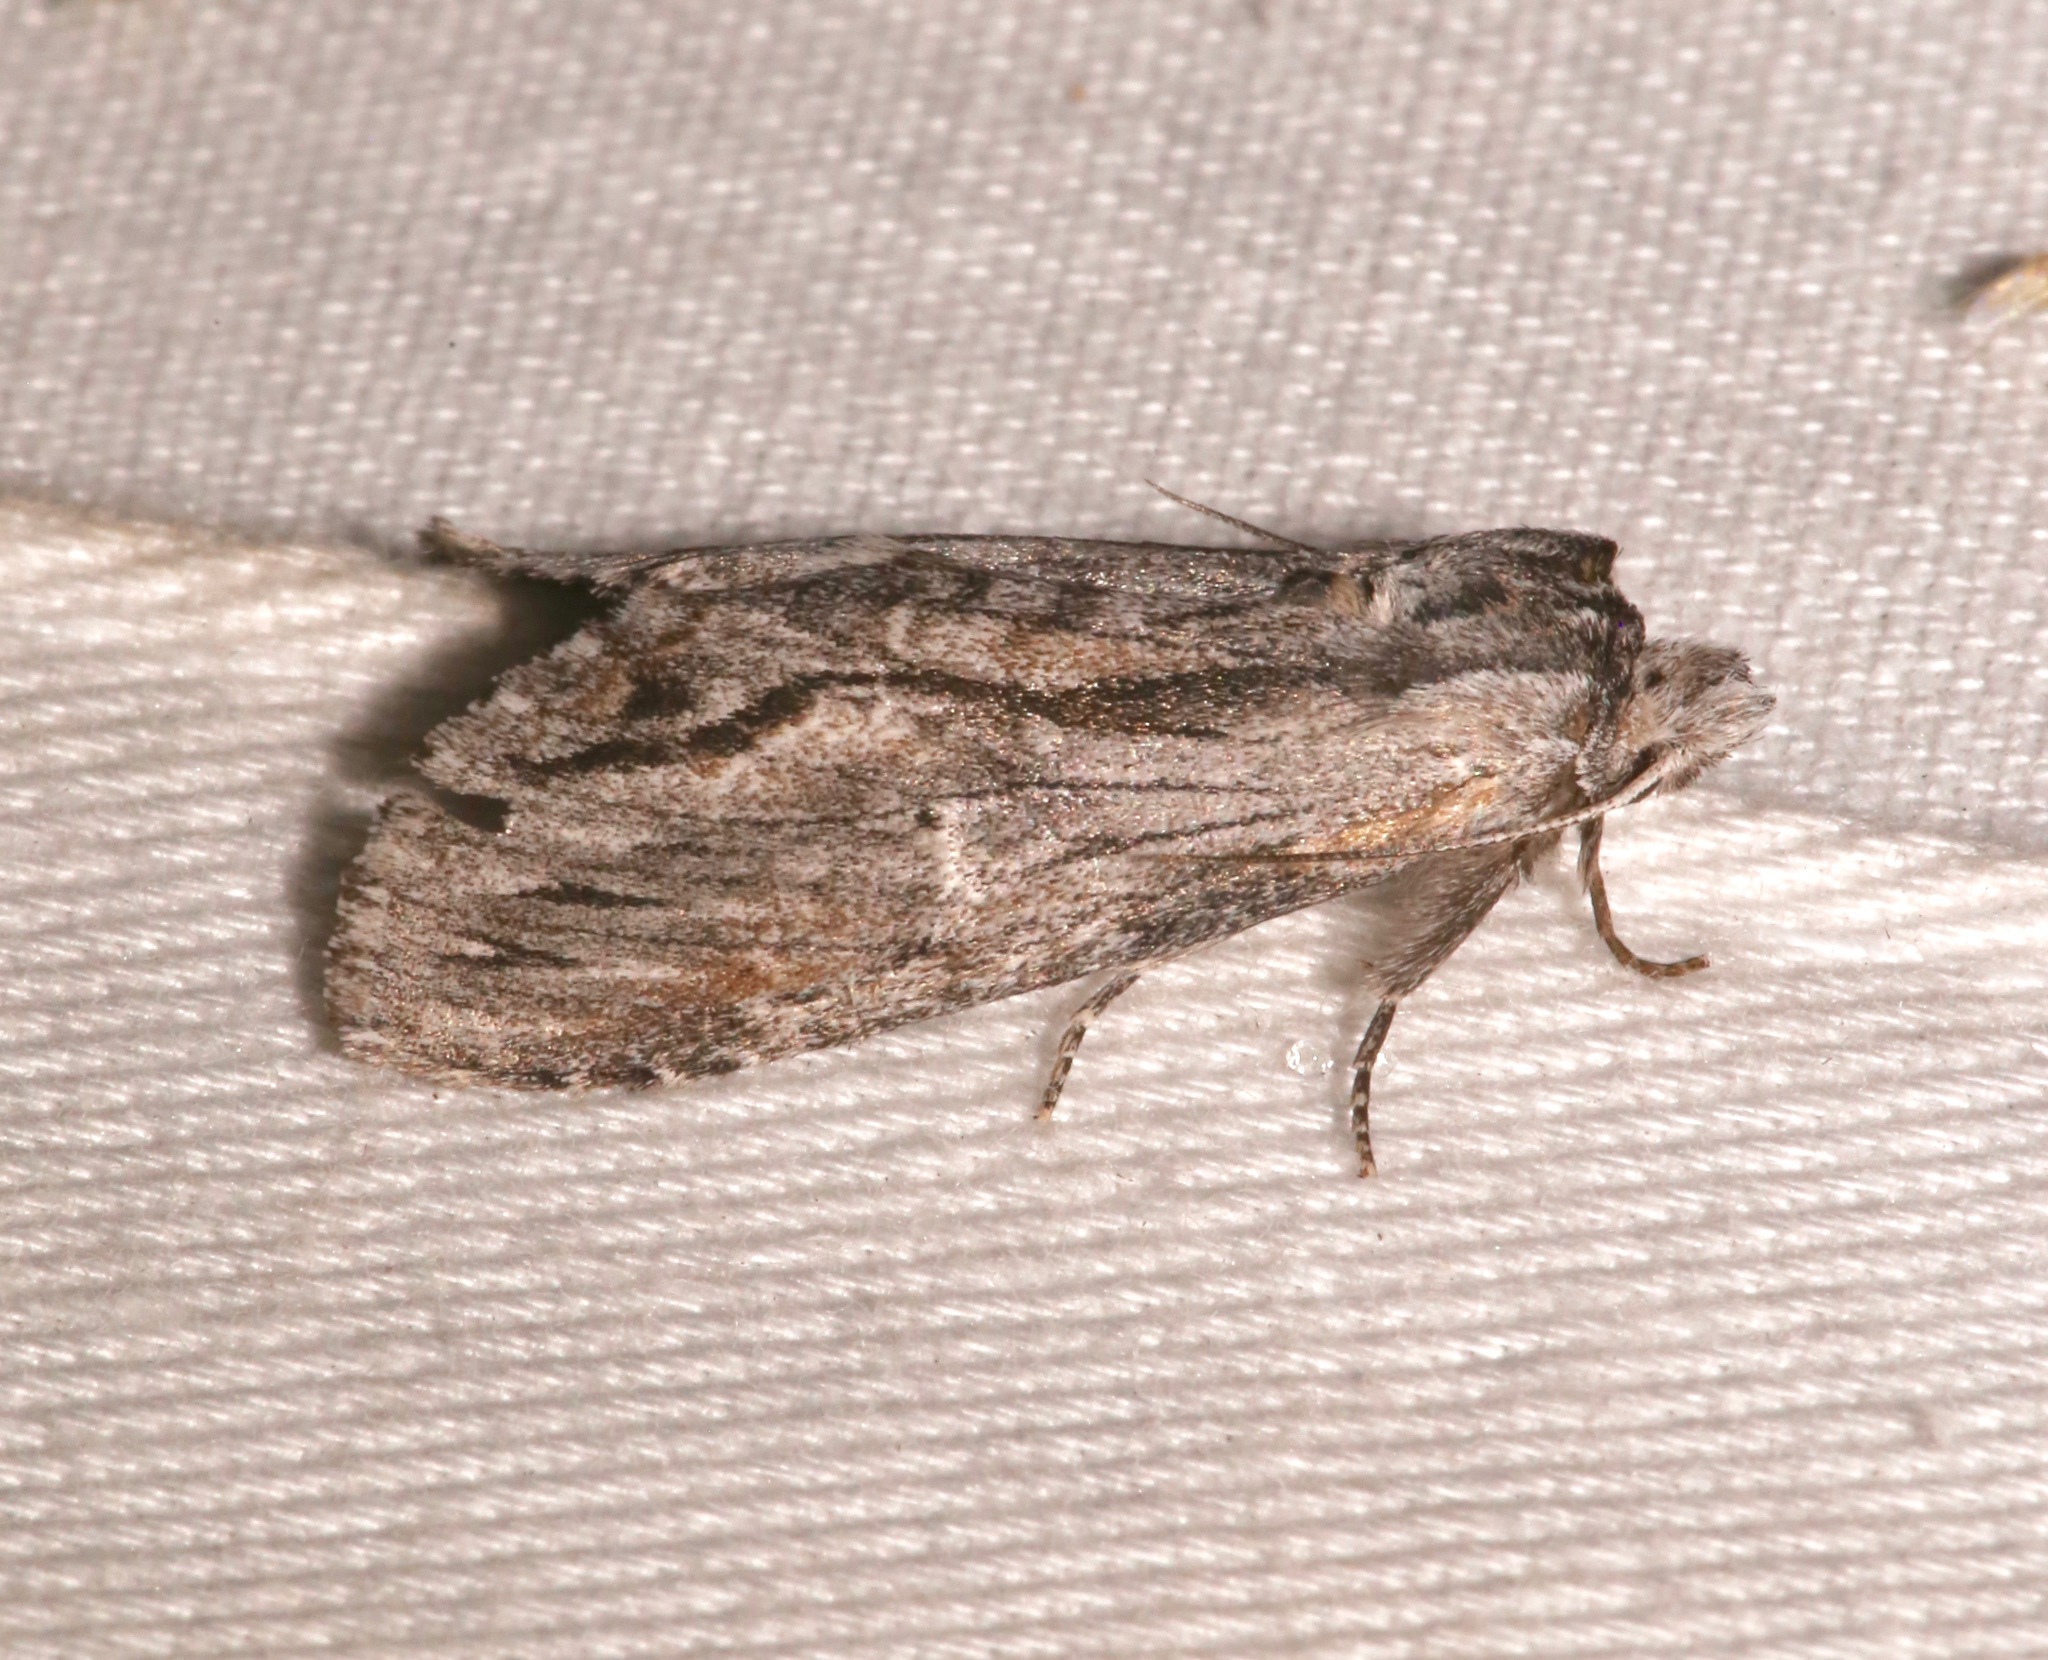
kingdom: Animalia
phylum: Arthropoda
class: Insecta
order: Lepidoptera
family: Notodontidae
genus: Notela
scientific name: Notela jaliscana
